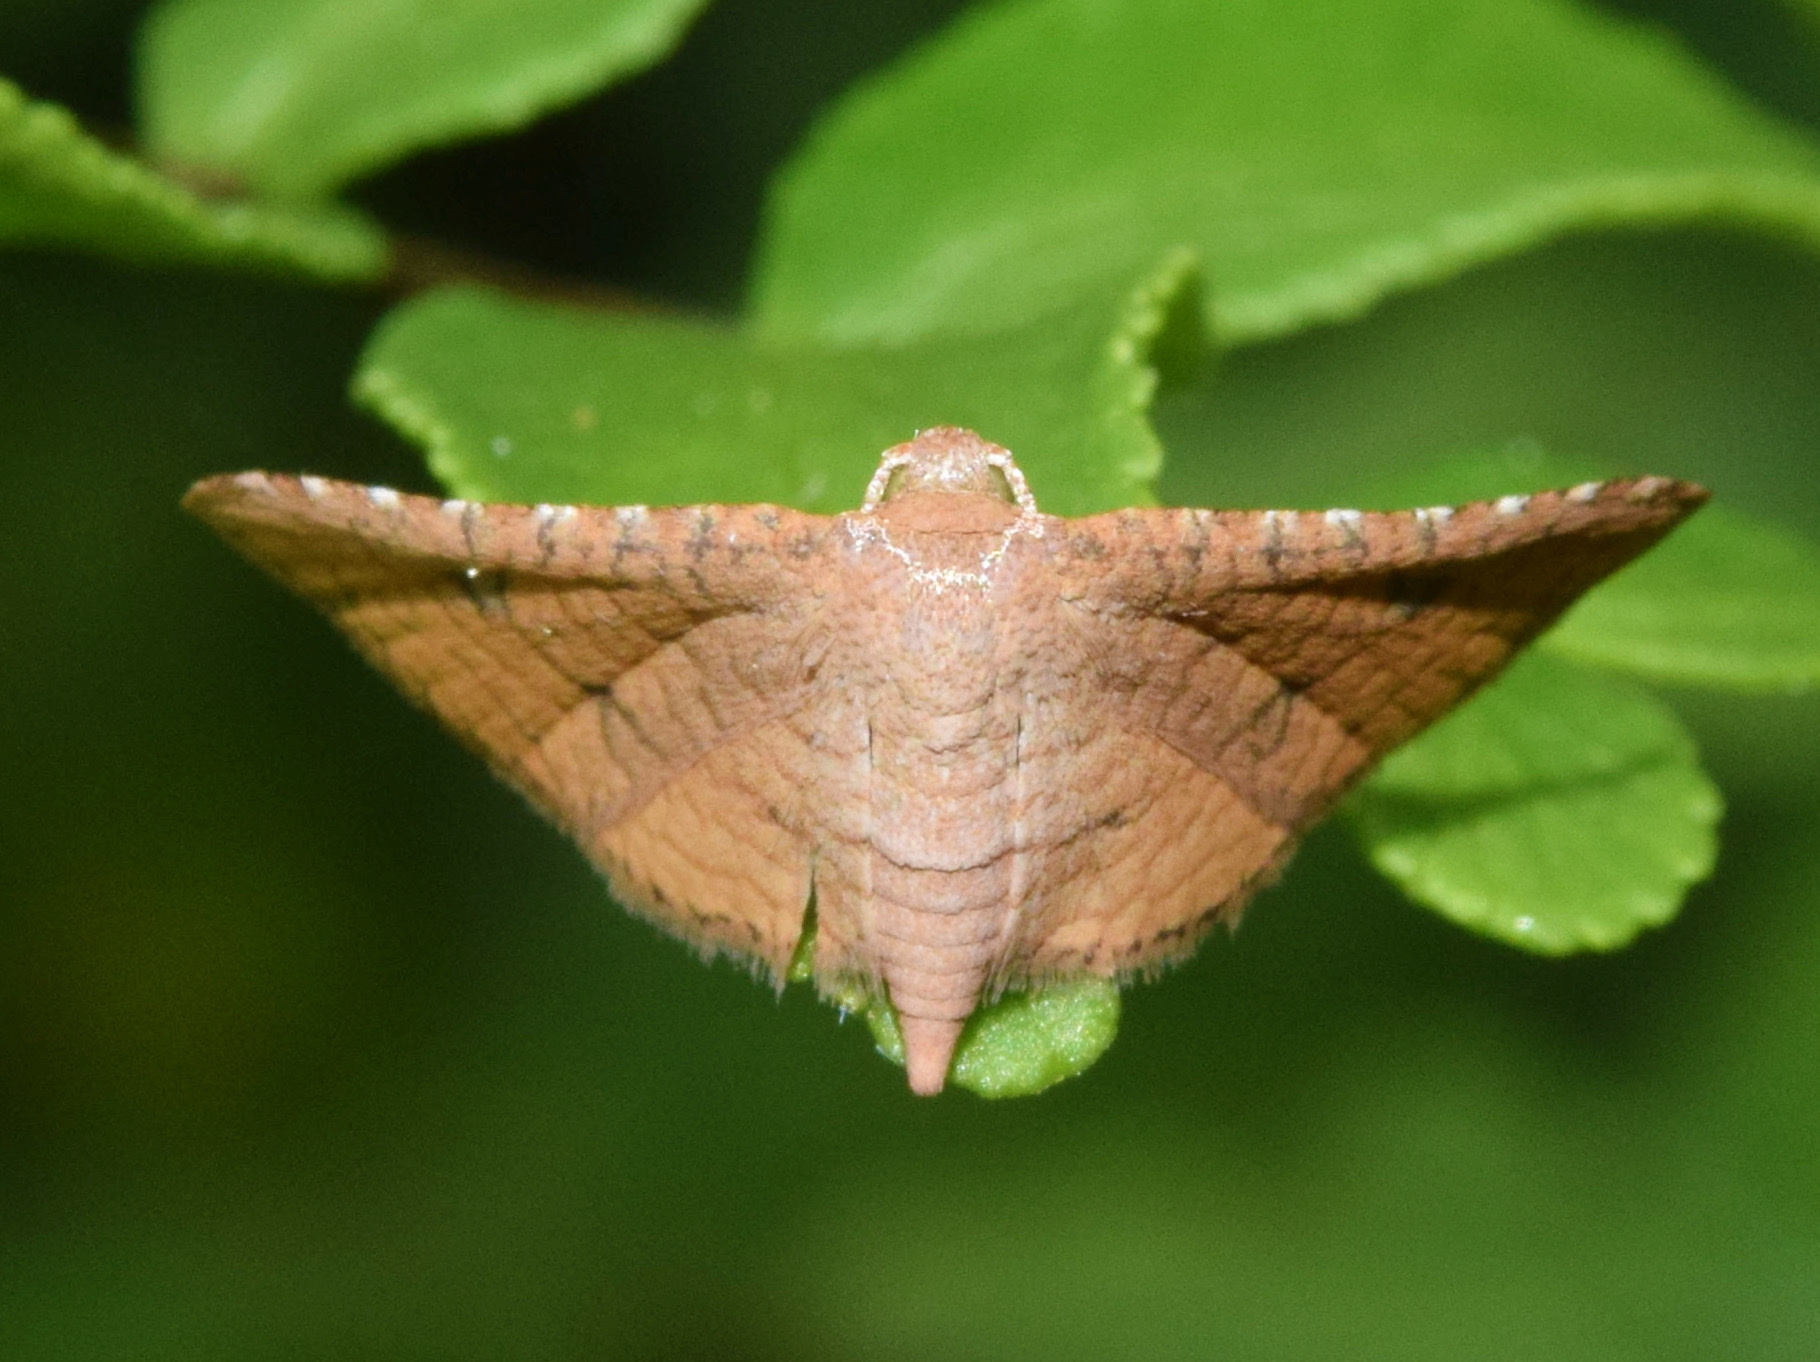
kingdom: Animalia
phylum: Arthropoda
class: Insecta
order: Lepidoptera
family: Thyrididae
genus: Rhodoneura
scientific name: Rhodoneura flavicilia
